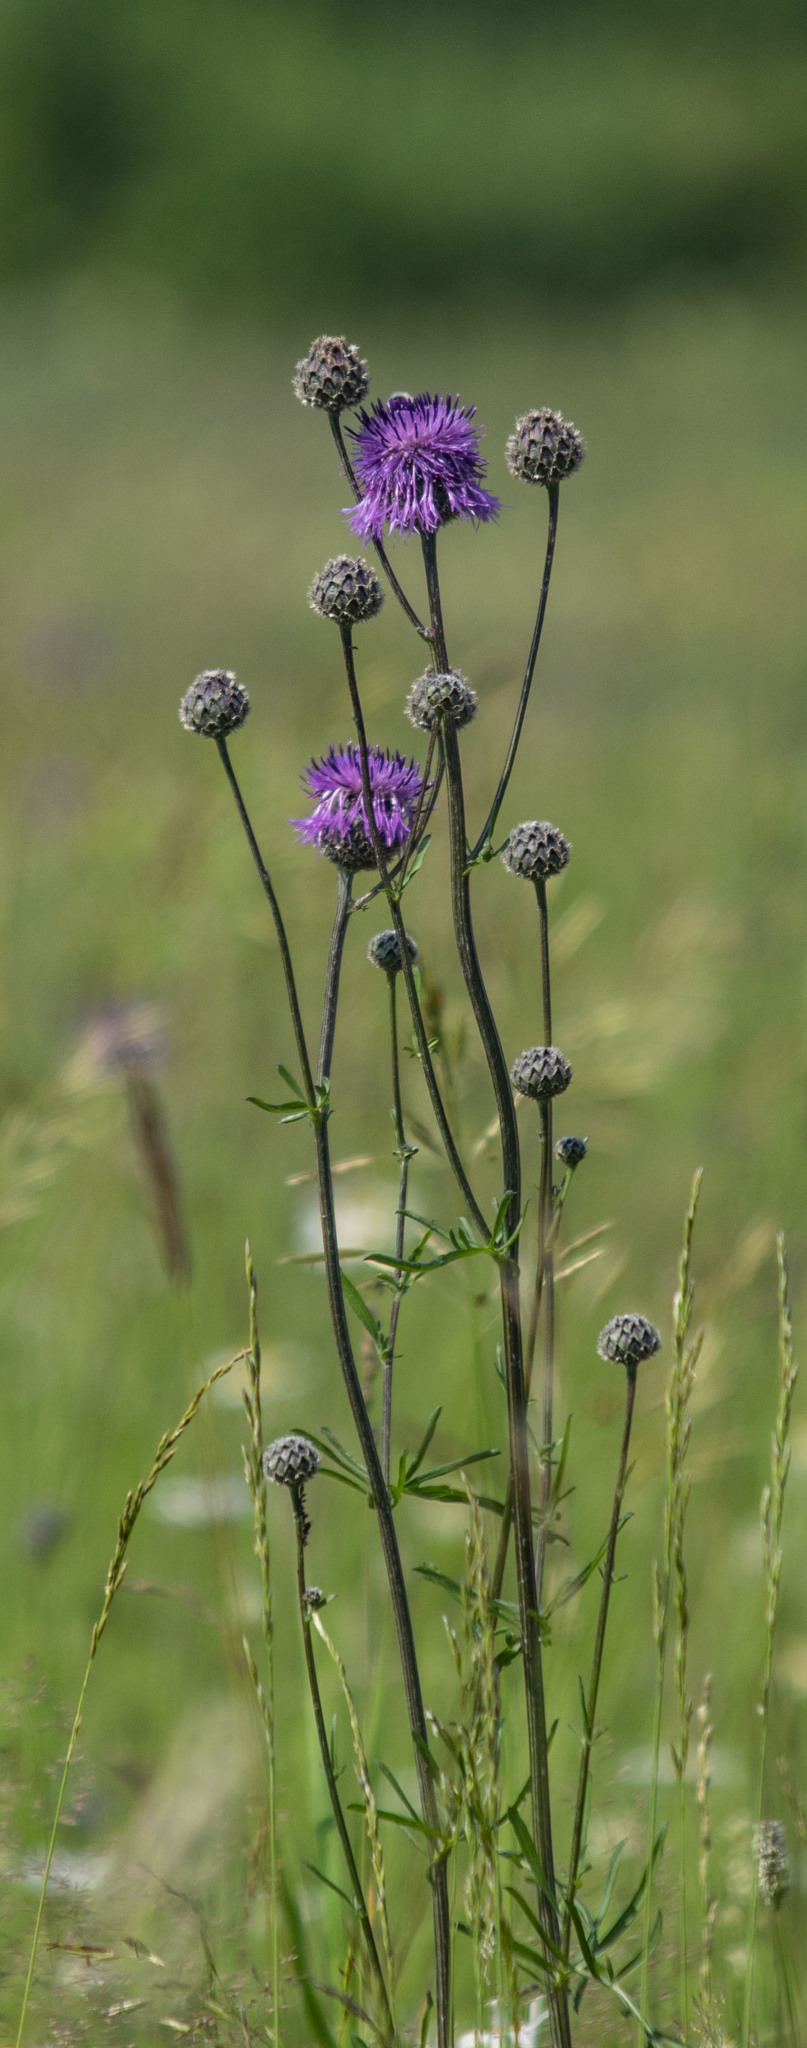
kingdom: Plantae
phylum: Tracheophyta
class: Magnoliopsida
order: Asterales
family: Asteraceae
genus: Centaurea
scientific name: Centaurea scabiosa
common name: Greater knapweed
